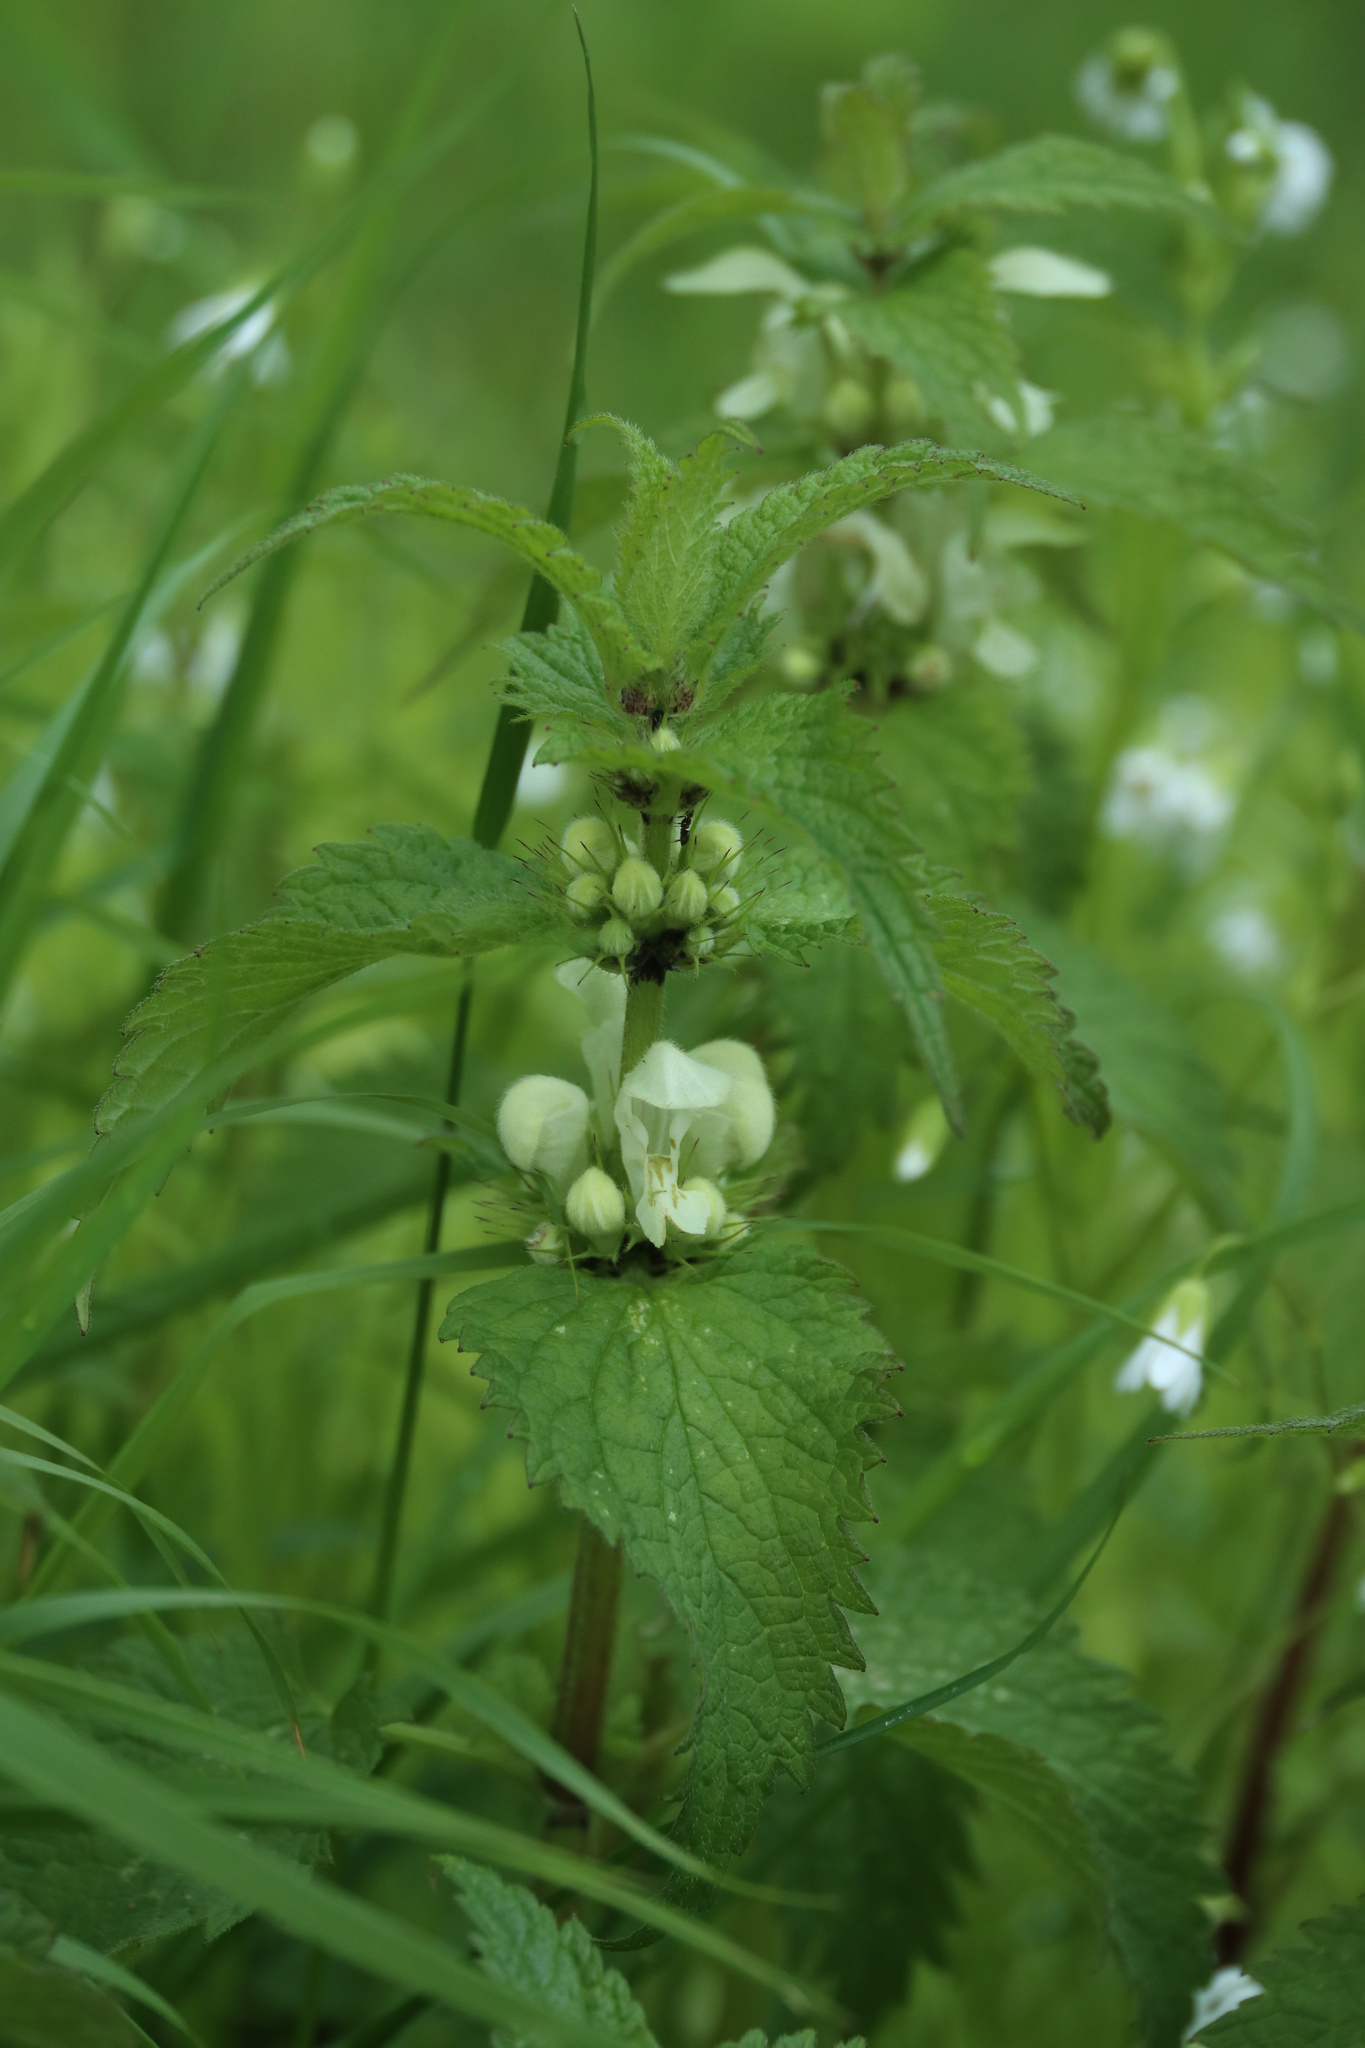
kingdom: Plantae
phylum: Tracheophyta
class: Magnoliopsida
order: Lamiales
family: Lamiaceae
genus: Lamium
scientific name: Lamium album
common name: White dead-nettle
